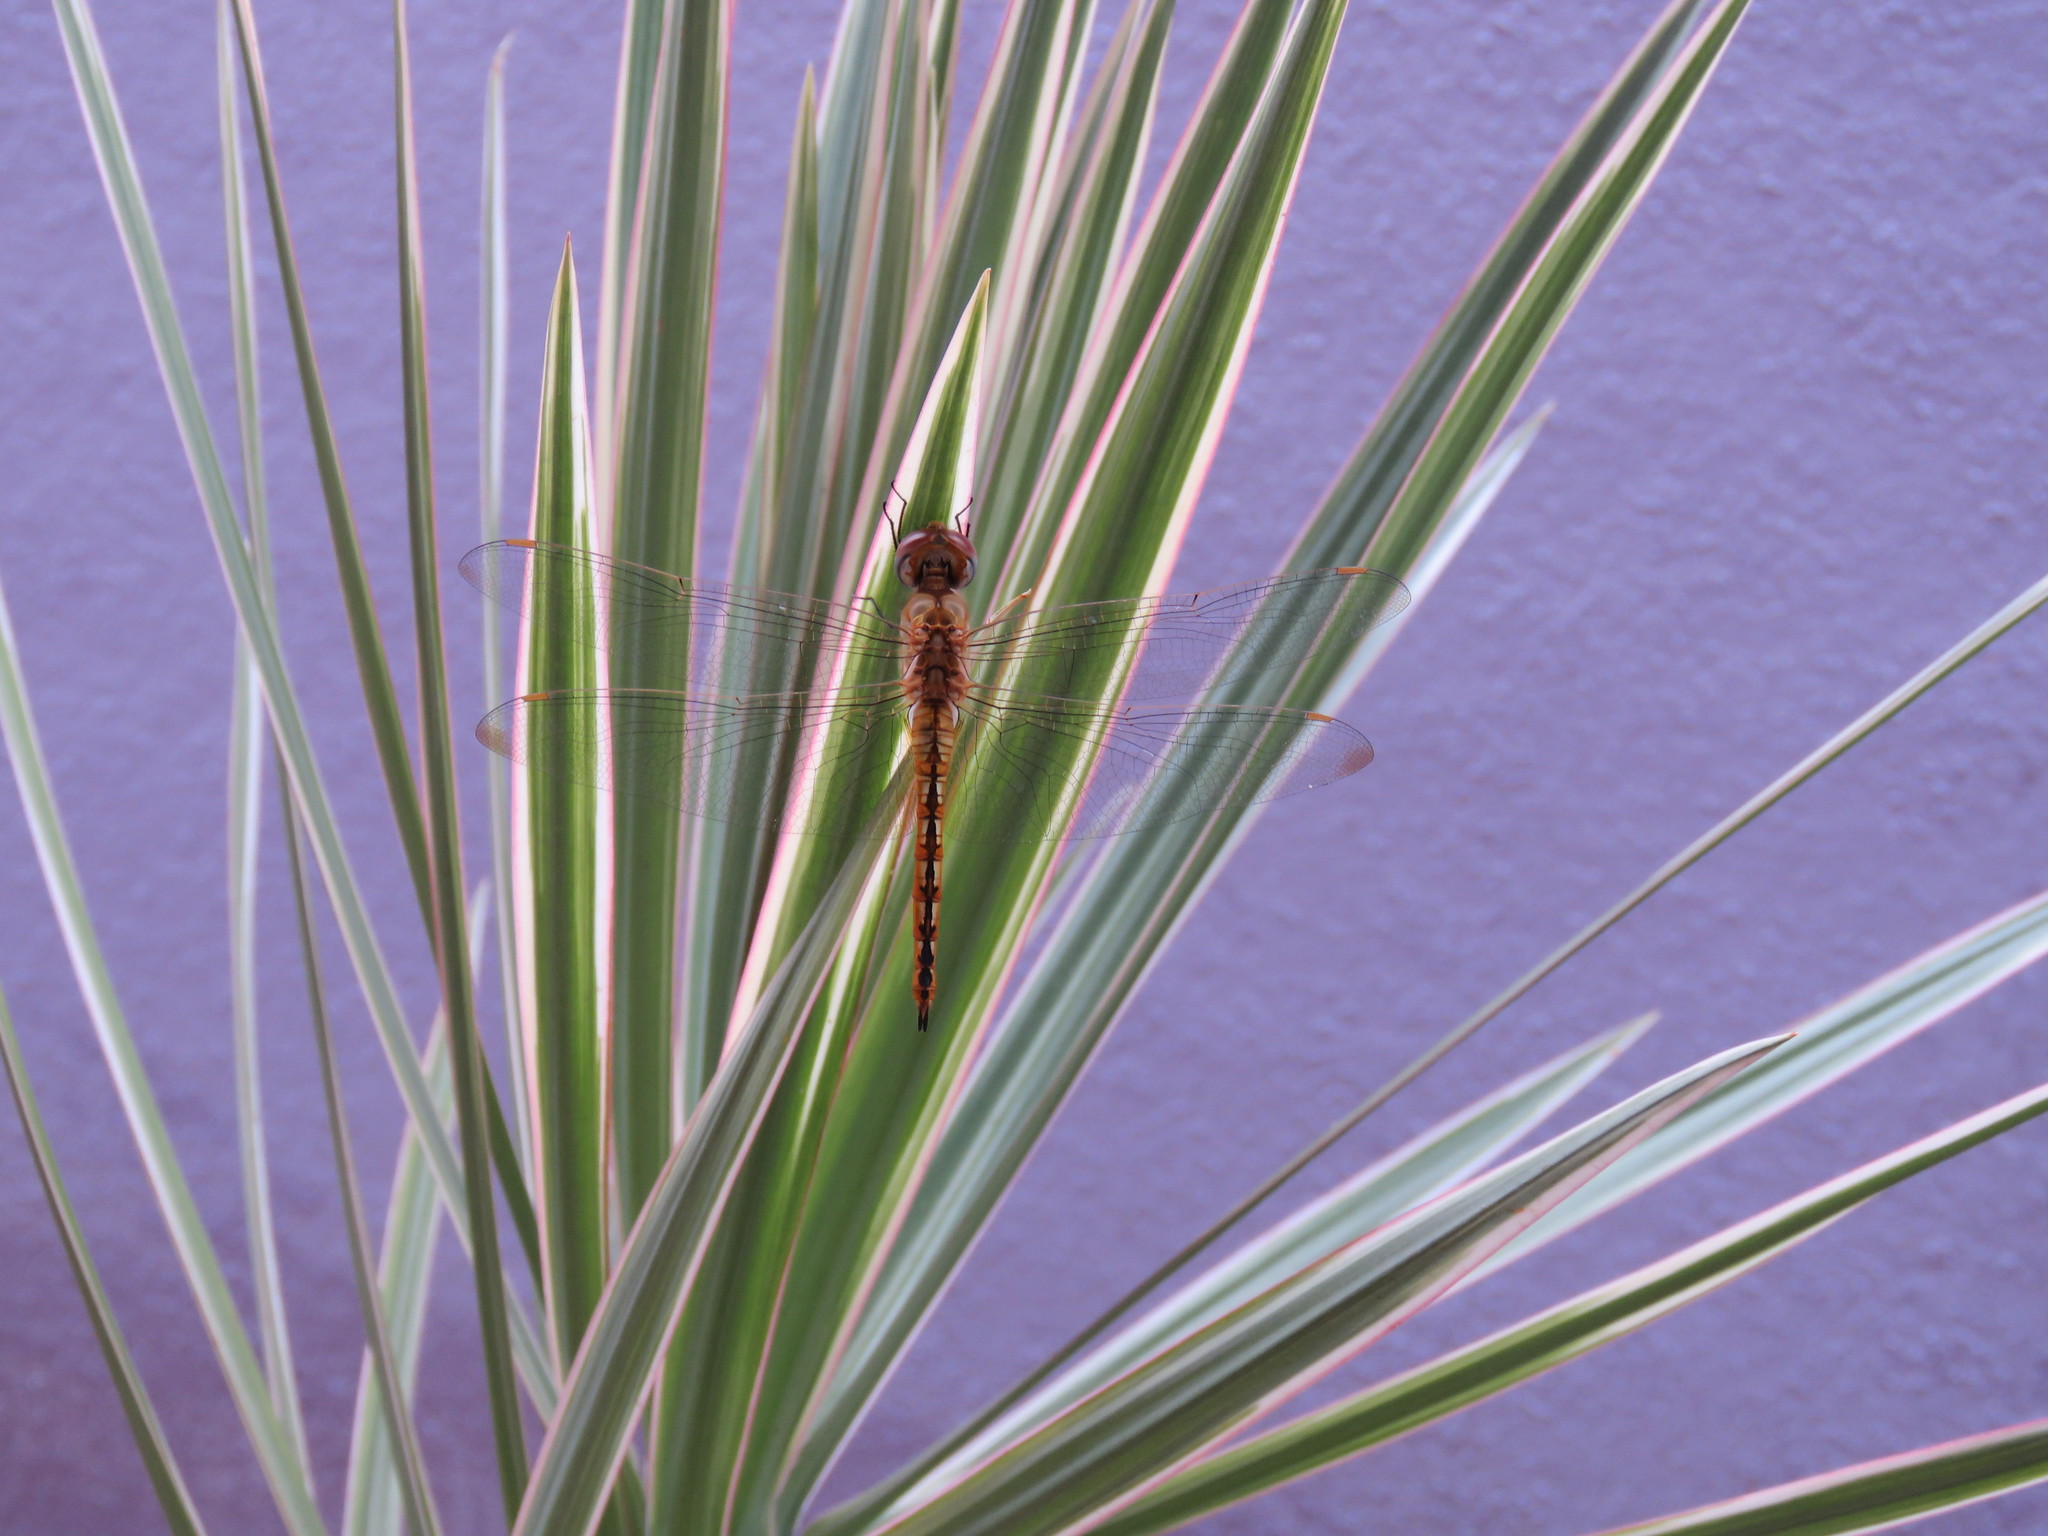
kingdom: Animalia
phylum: Arthropoda
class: Insecta
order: Odonata
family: Libellulidae
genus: Pantala
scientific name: Pantala flavescens
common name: Wandering glider
